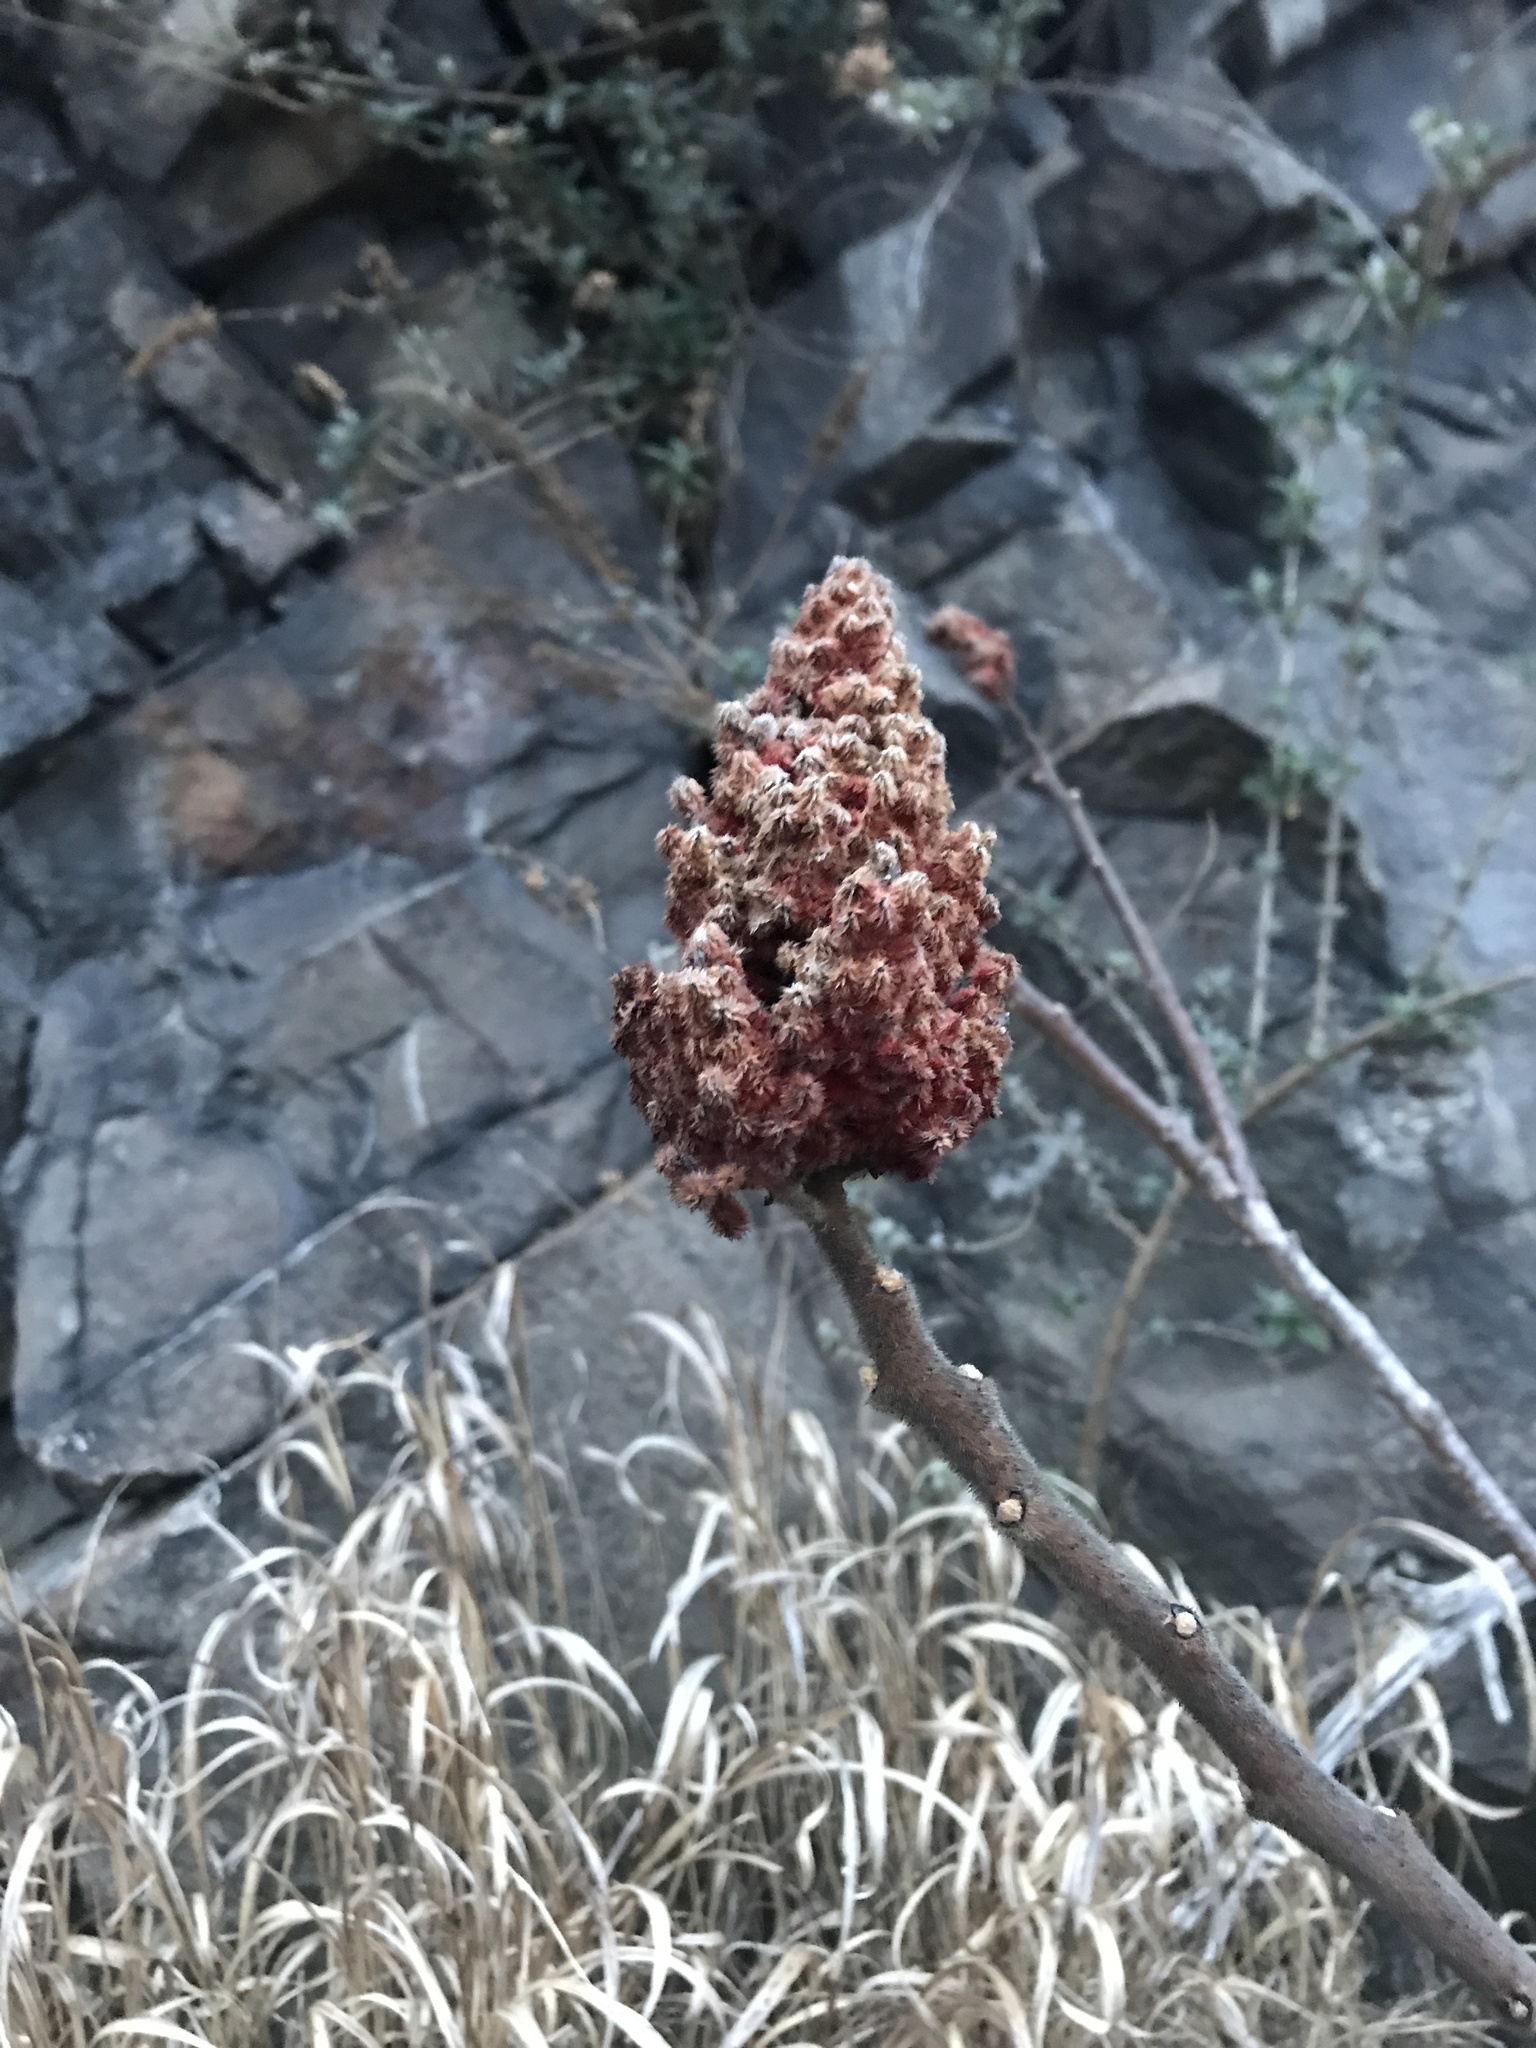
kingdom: Plantae
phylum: Tracheophyta
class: Magnoliopsida
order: Sapindales
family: Anacardiaceae
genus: Rhus
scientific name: Rhus typhina
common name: Staghorn sumac
